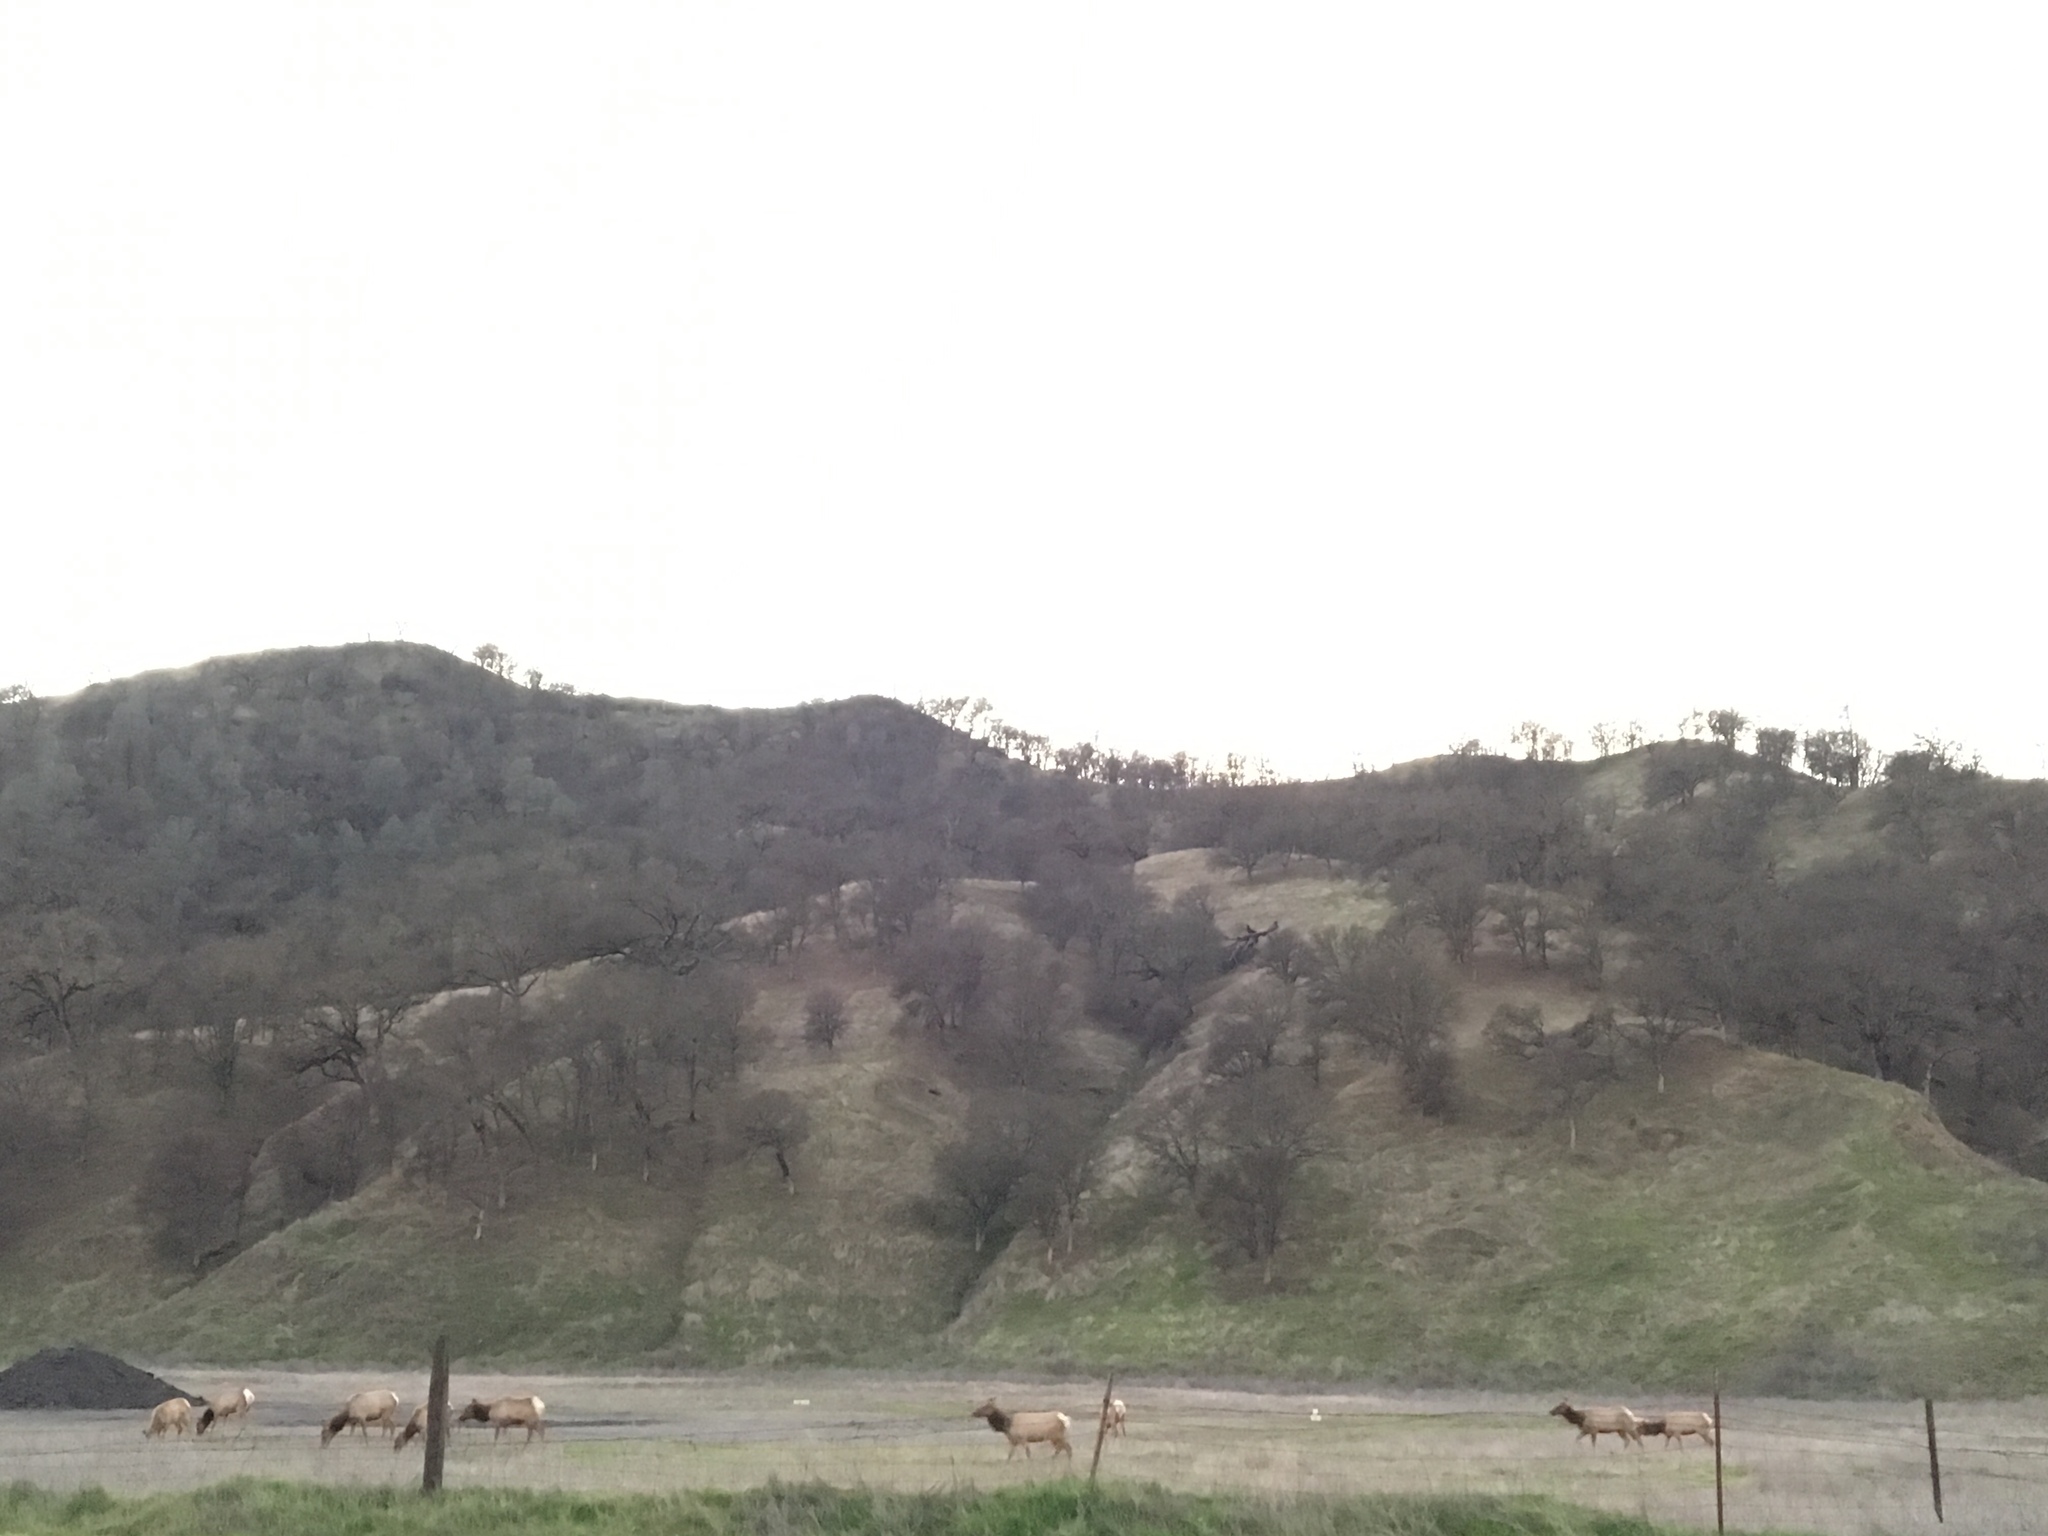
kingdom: Animalia
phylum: Chordata
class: Mammalia
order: Artiodactyla
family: Cervidae
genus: Cervus
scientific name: Cervus elaphus
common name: Red deer
